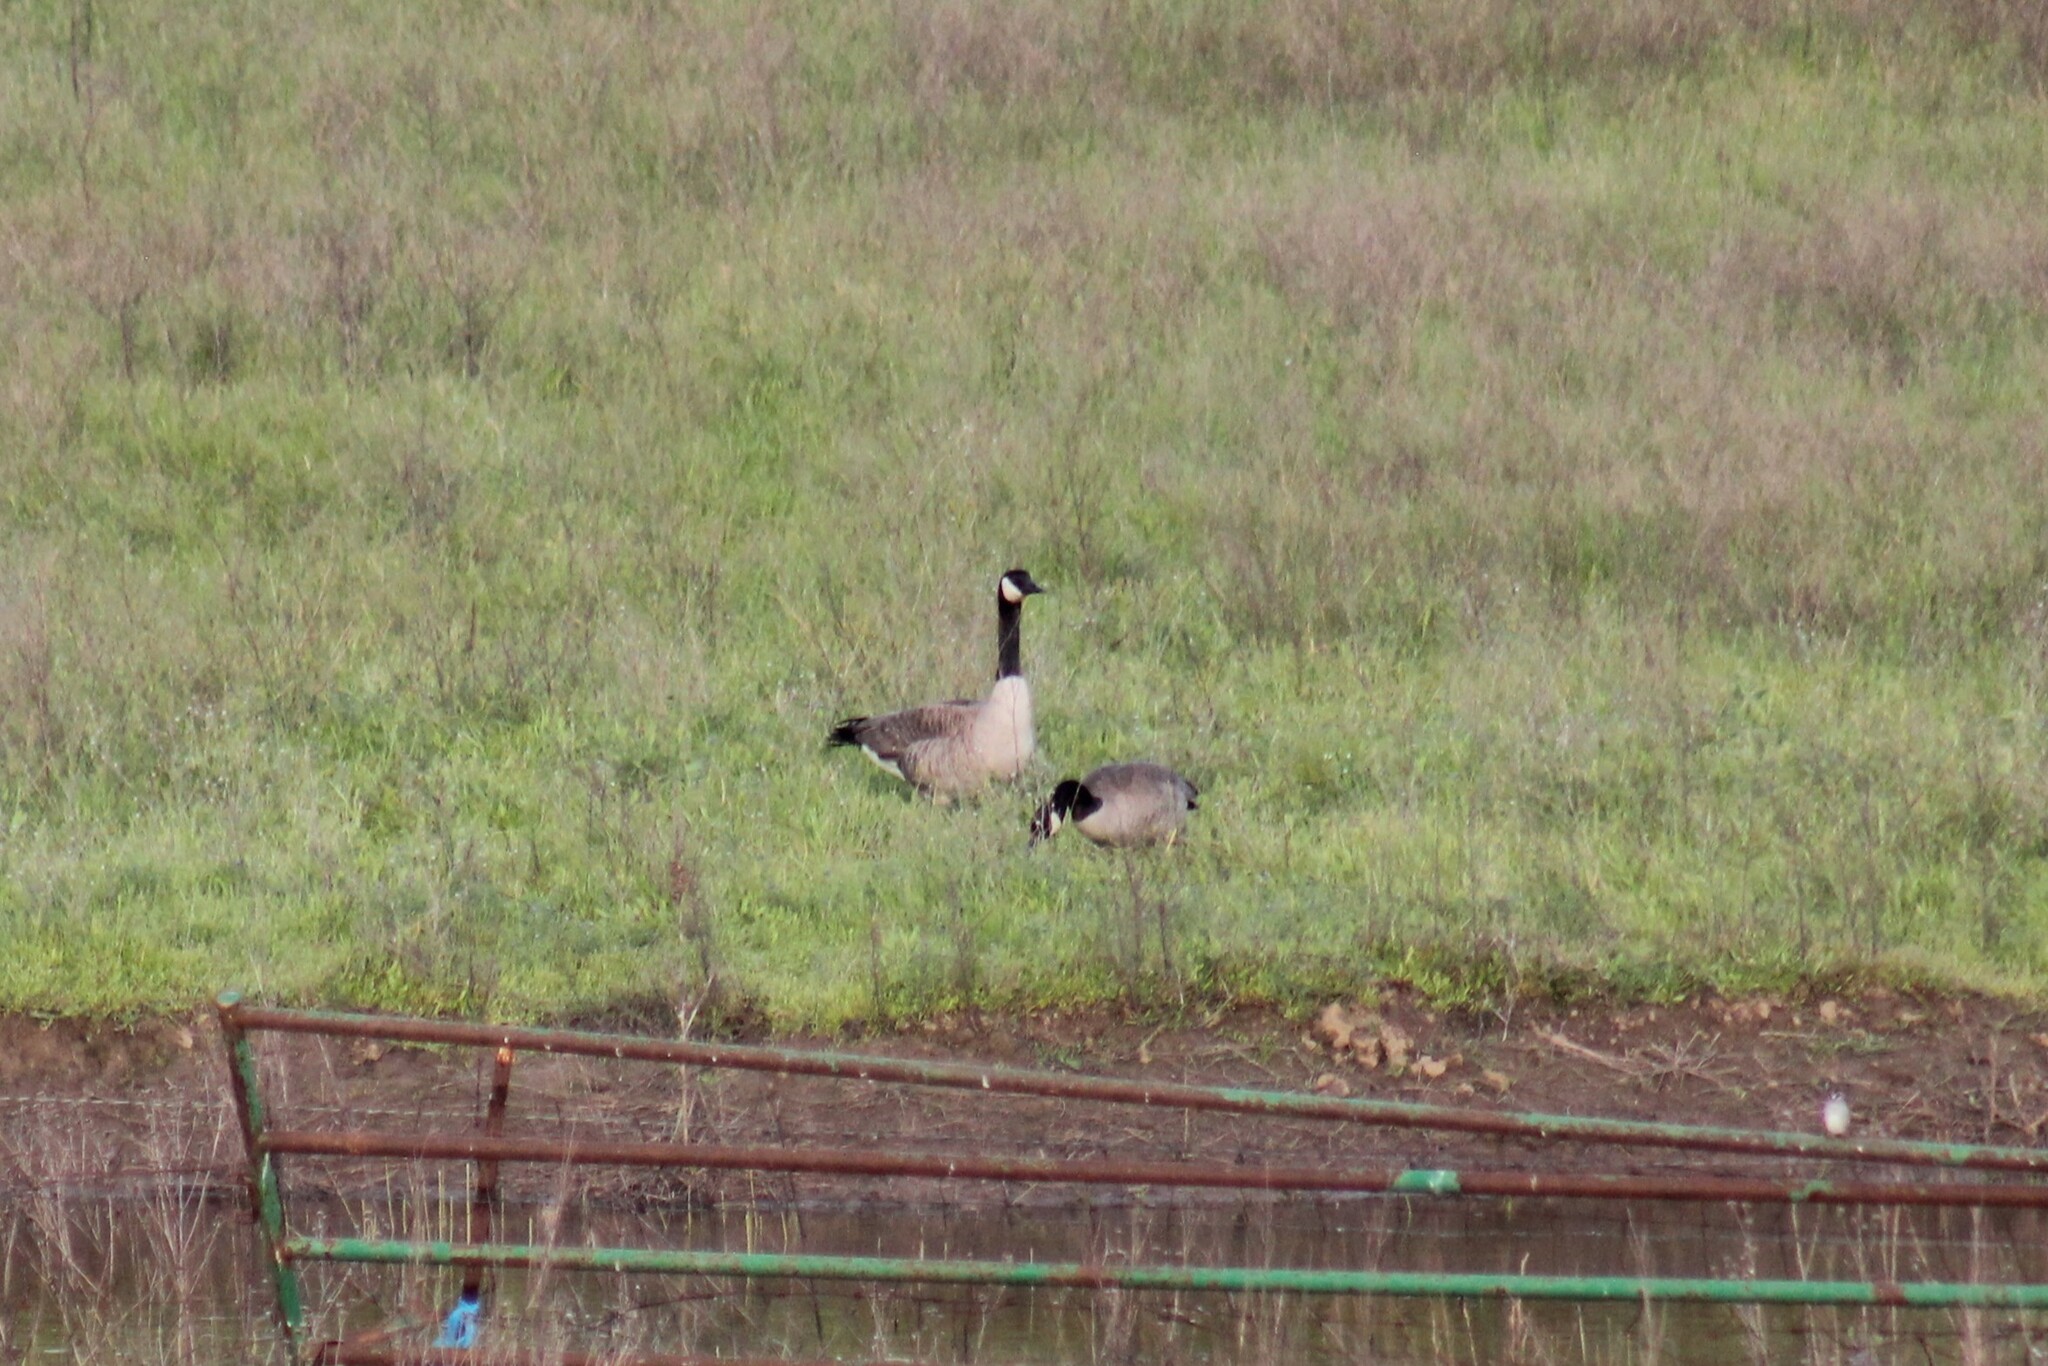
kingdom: Animalia
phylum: Chordata
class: Aves
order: Anseriformes
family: Anatidae
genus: Branta
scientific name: Branta canadensis
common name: Canada goose
